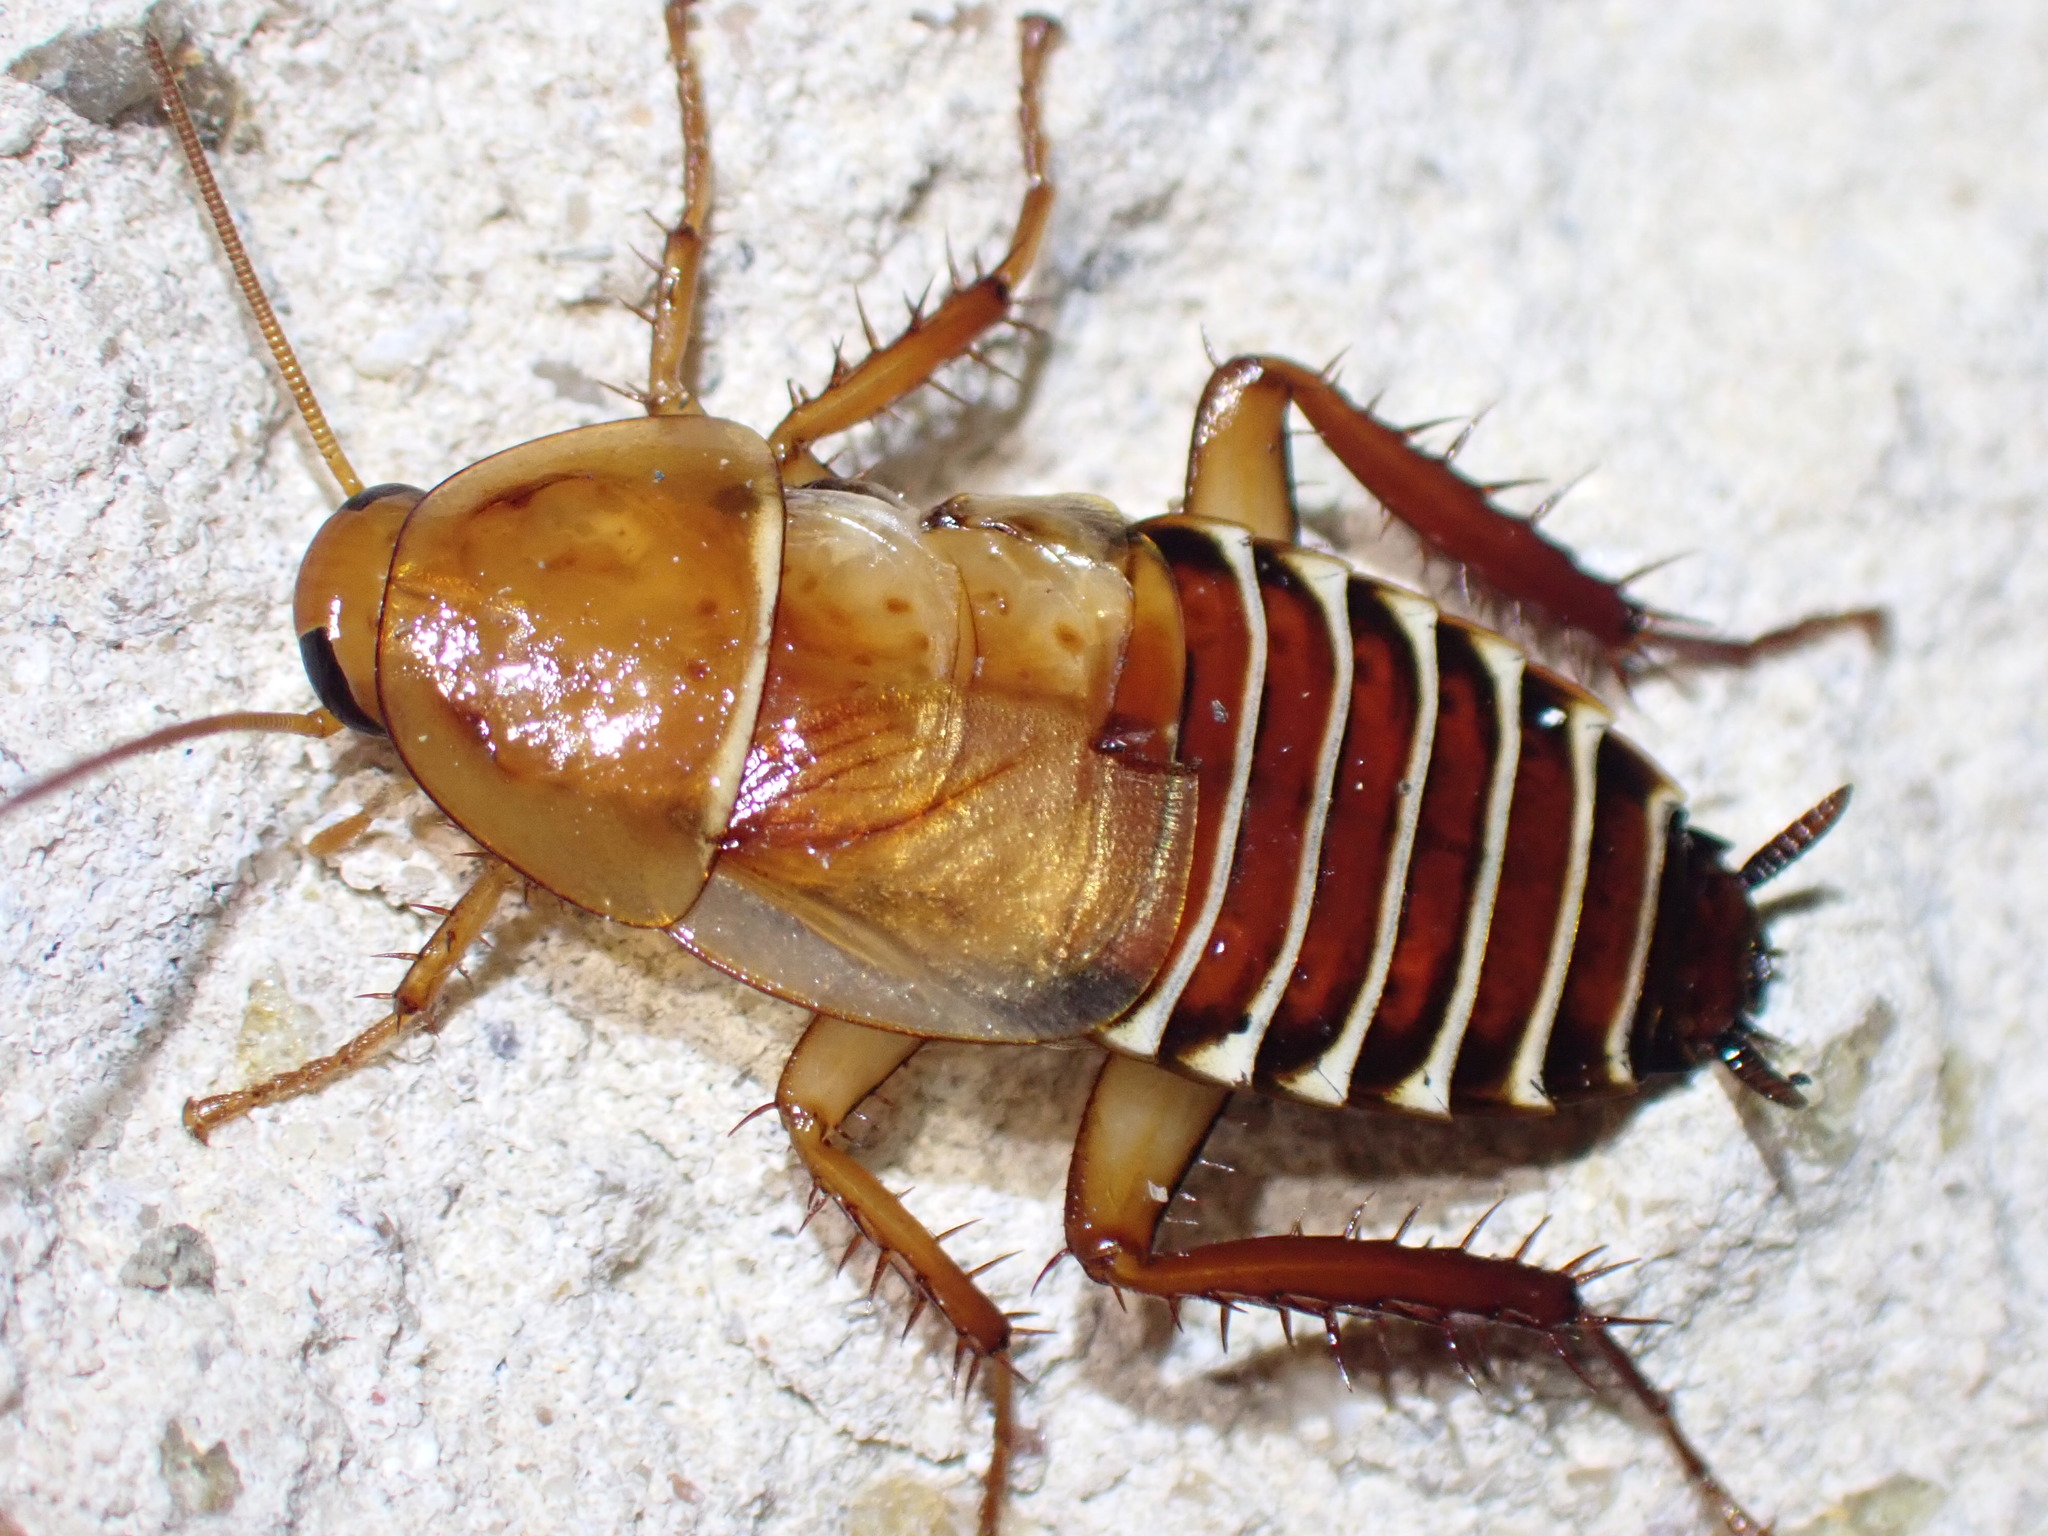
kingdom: Animalia
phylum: Arthropoda
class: Insecta
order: Blattodea
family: Ectobiidae
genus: Temnopteryx
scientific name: Temnopteryx phalerata
